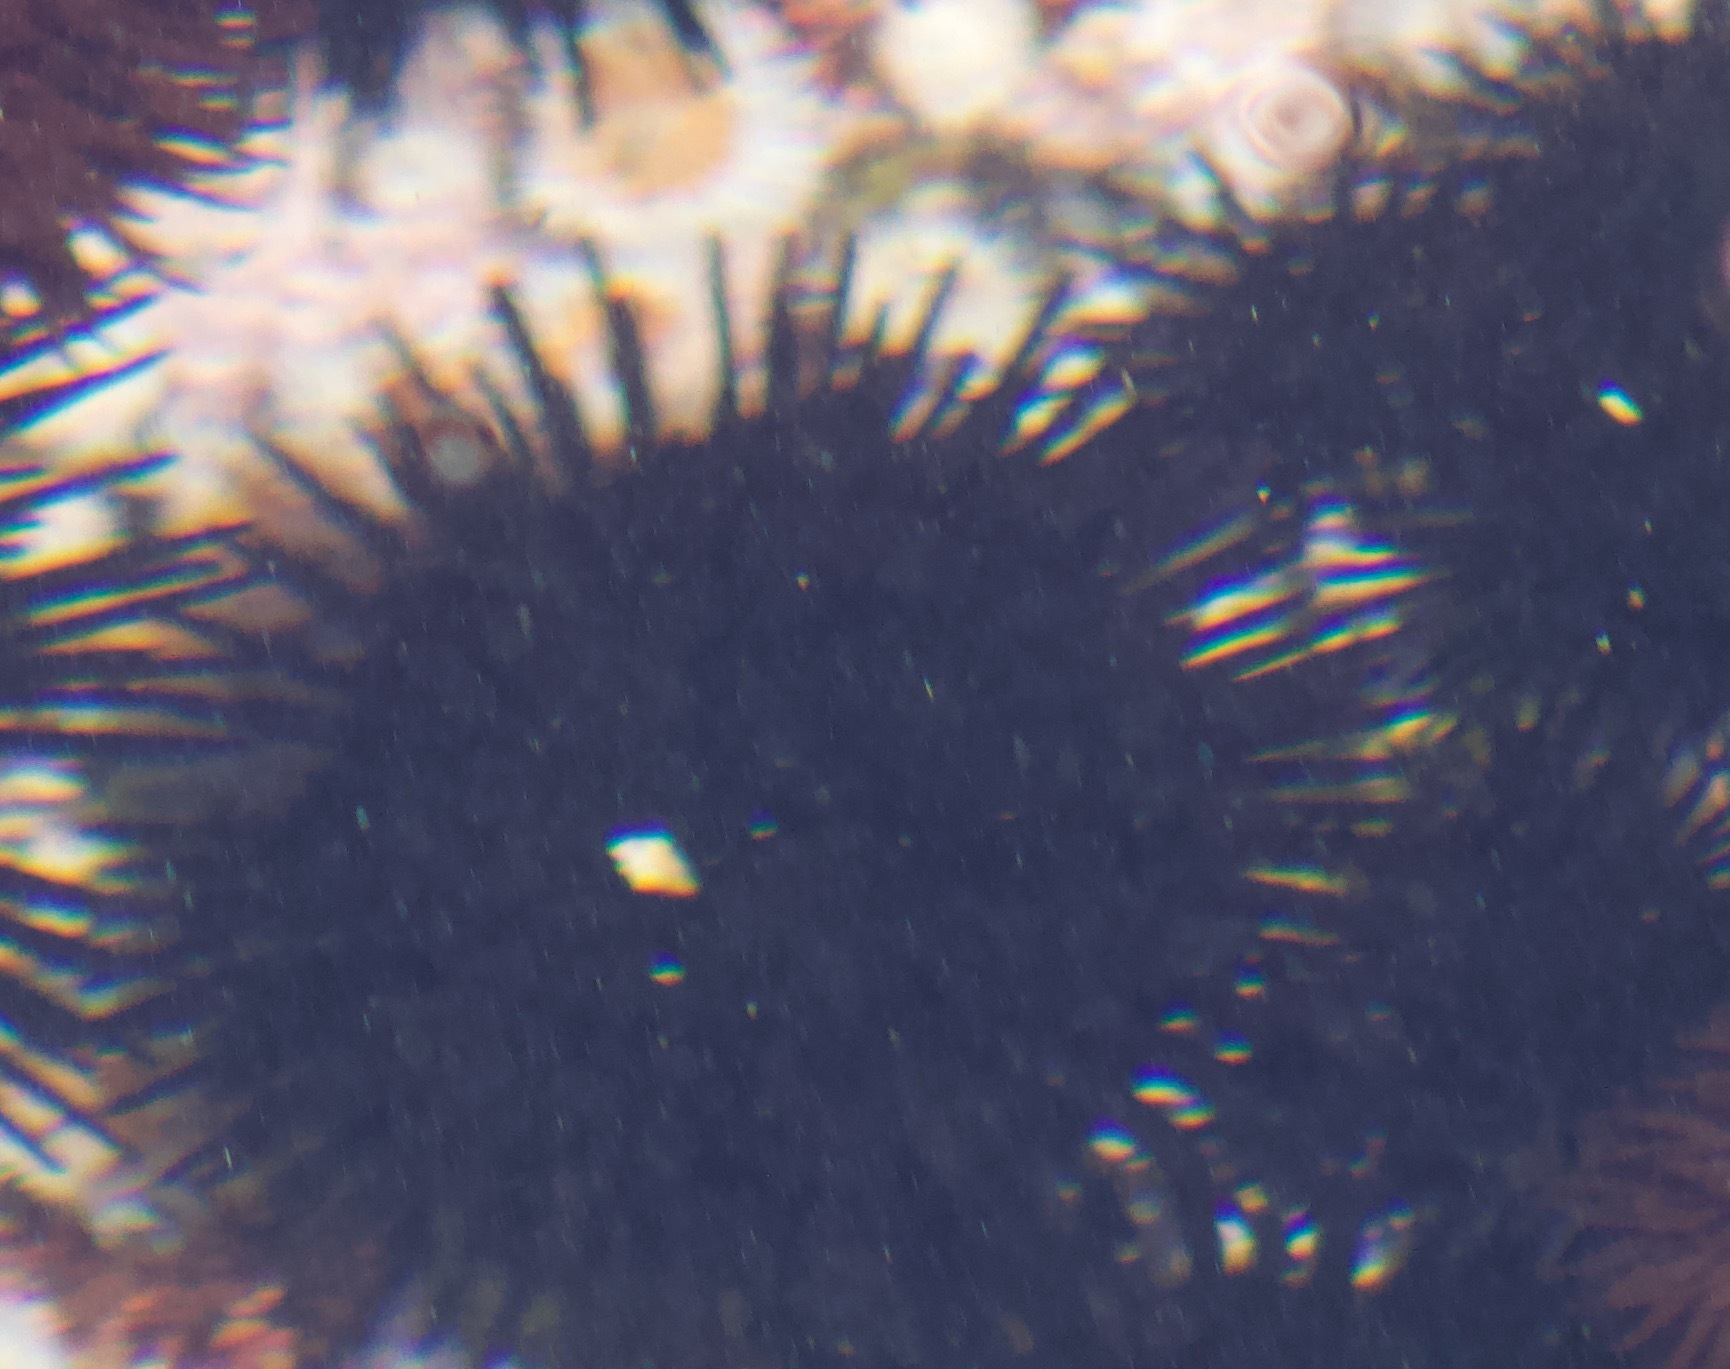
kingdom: Animalia
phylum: Echinodermata
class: Echinoidea
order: Arbacioida
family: Arbaciidae
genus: Tetrapygus
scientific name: Tetrapygus niger
